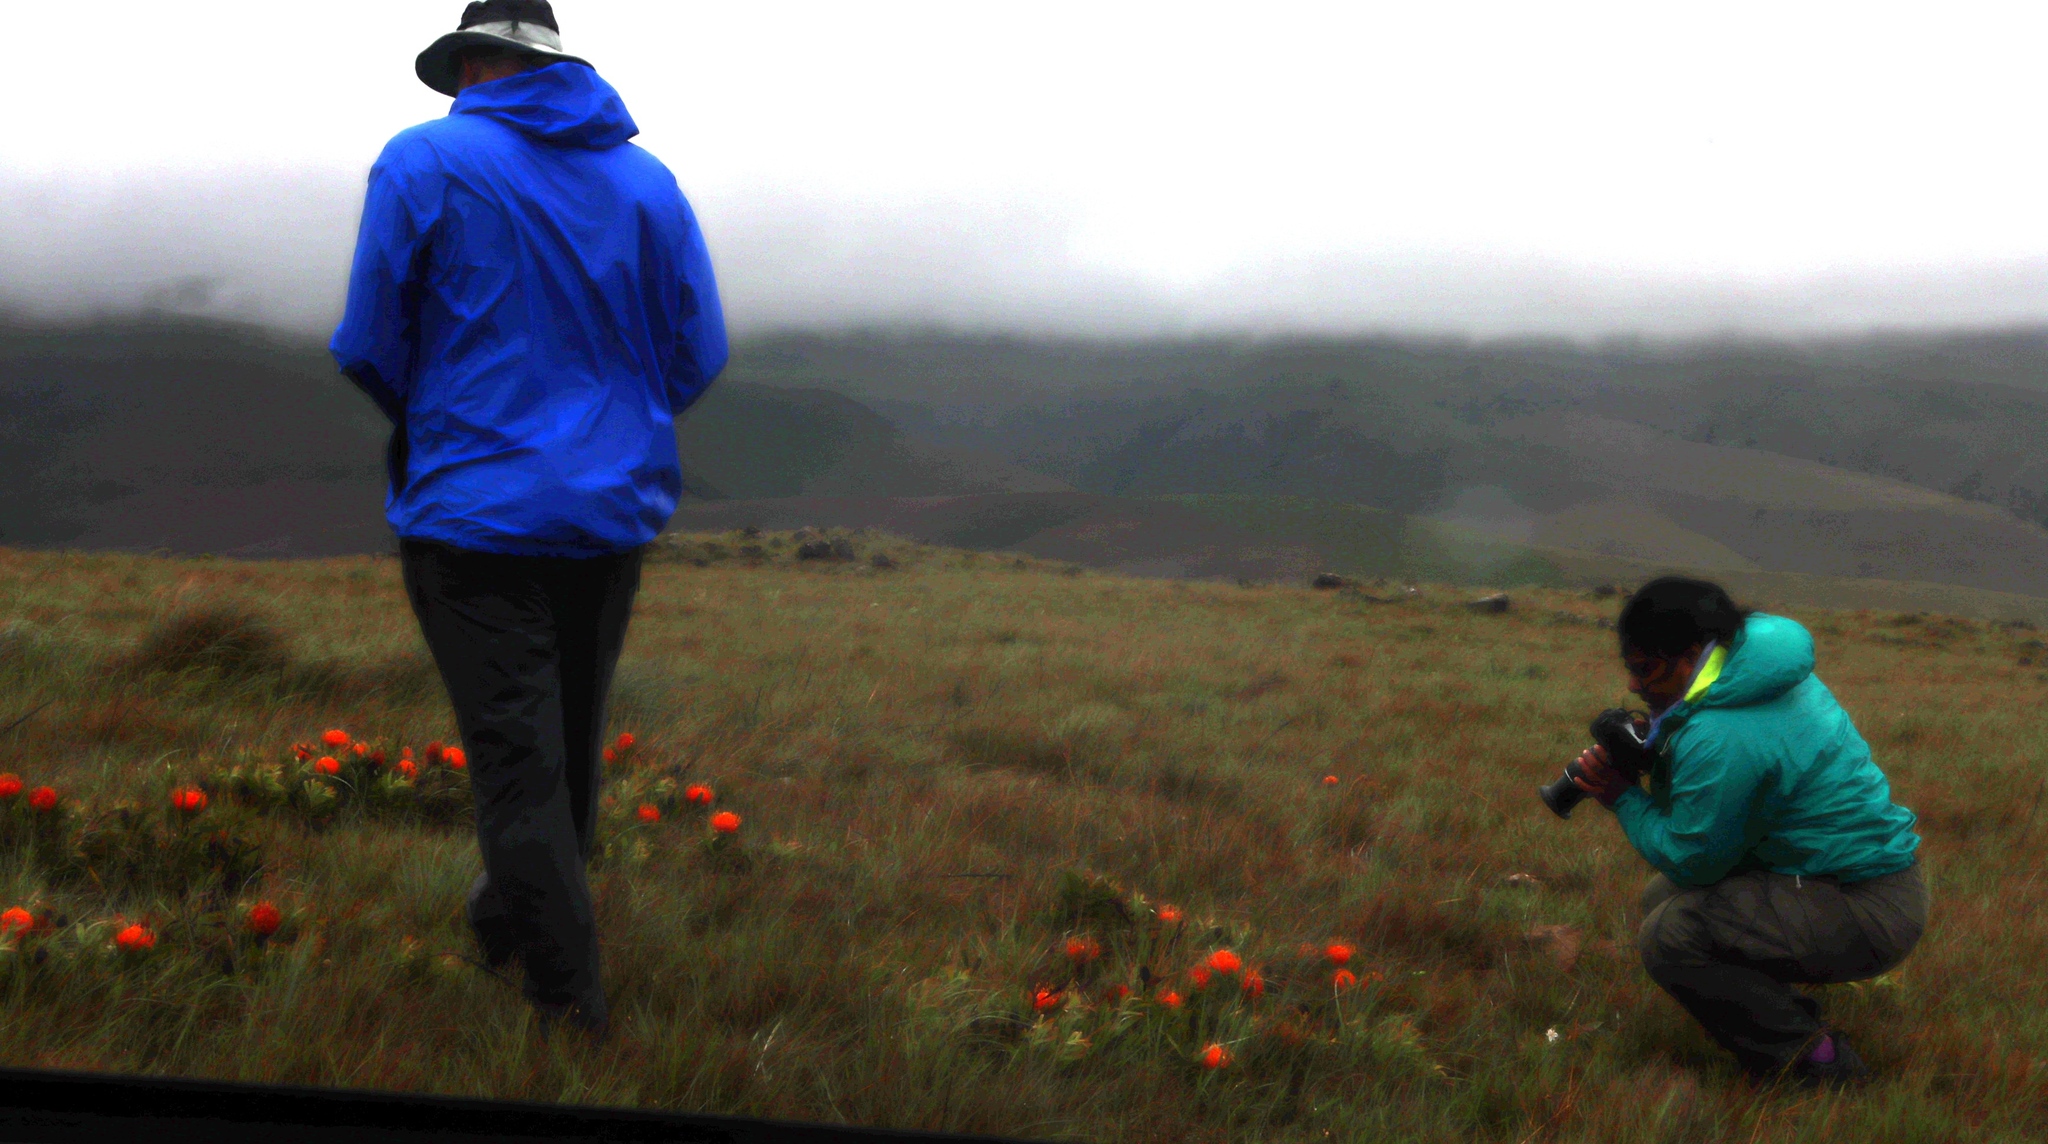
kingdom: Plantae
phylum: Tracheophyta
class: Magnoliopsida
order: Proteales
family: Proteaceae
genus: Leucospermum
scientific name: Leucospermum gerrardii
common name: Soapstone pincushion
